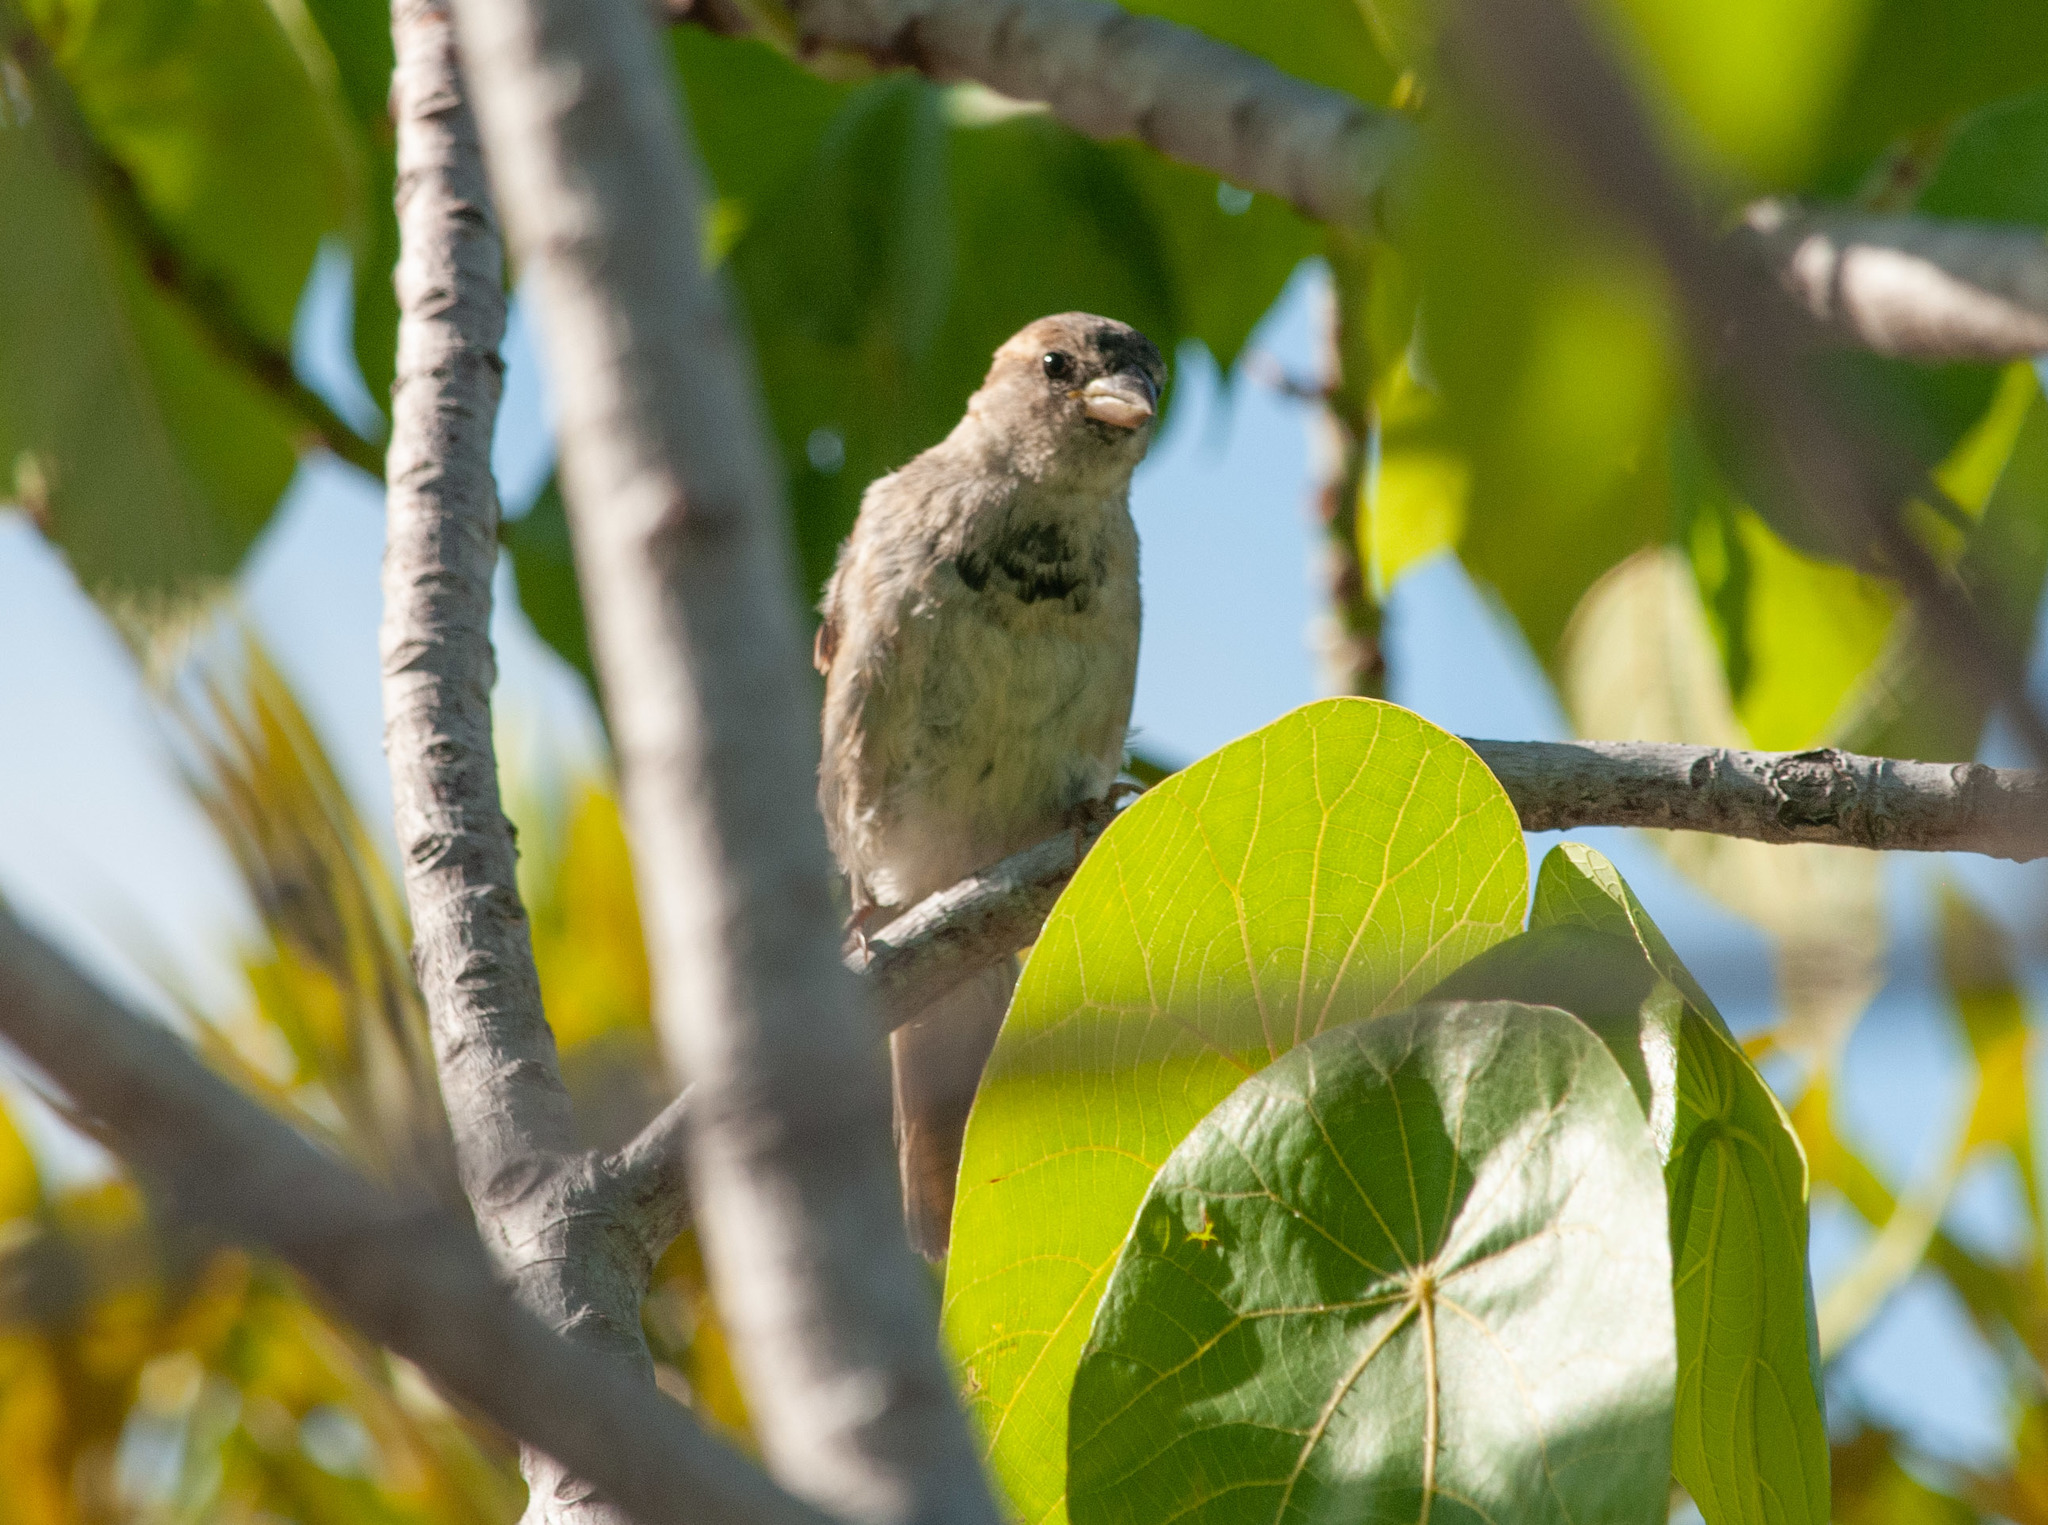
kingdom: Animalia
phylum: Chordata
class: Aves
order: Passeriformes
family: Passeridae
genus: Passer
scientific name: Passer domesticus
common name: House sparrow
